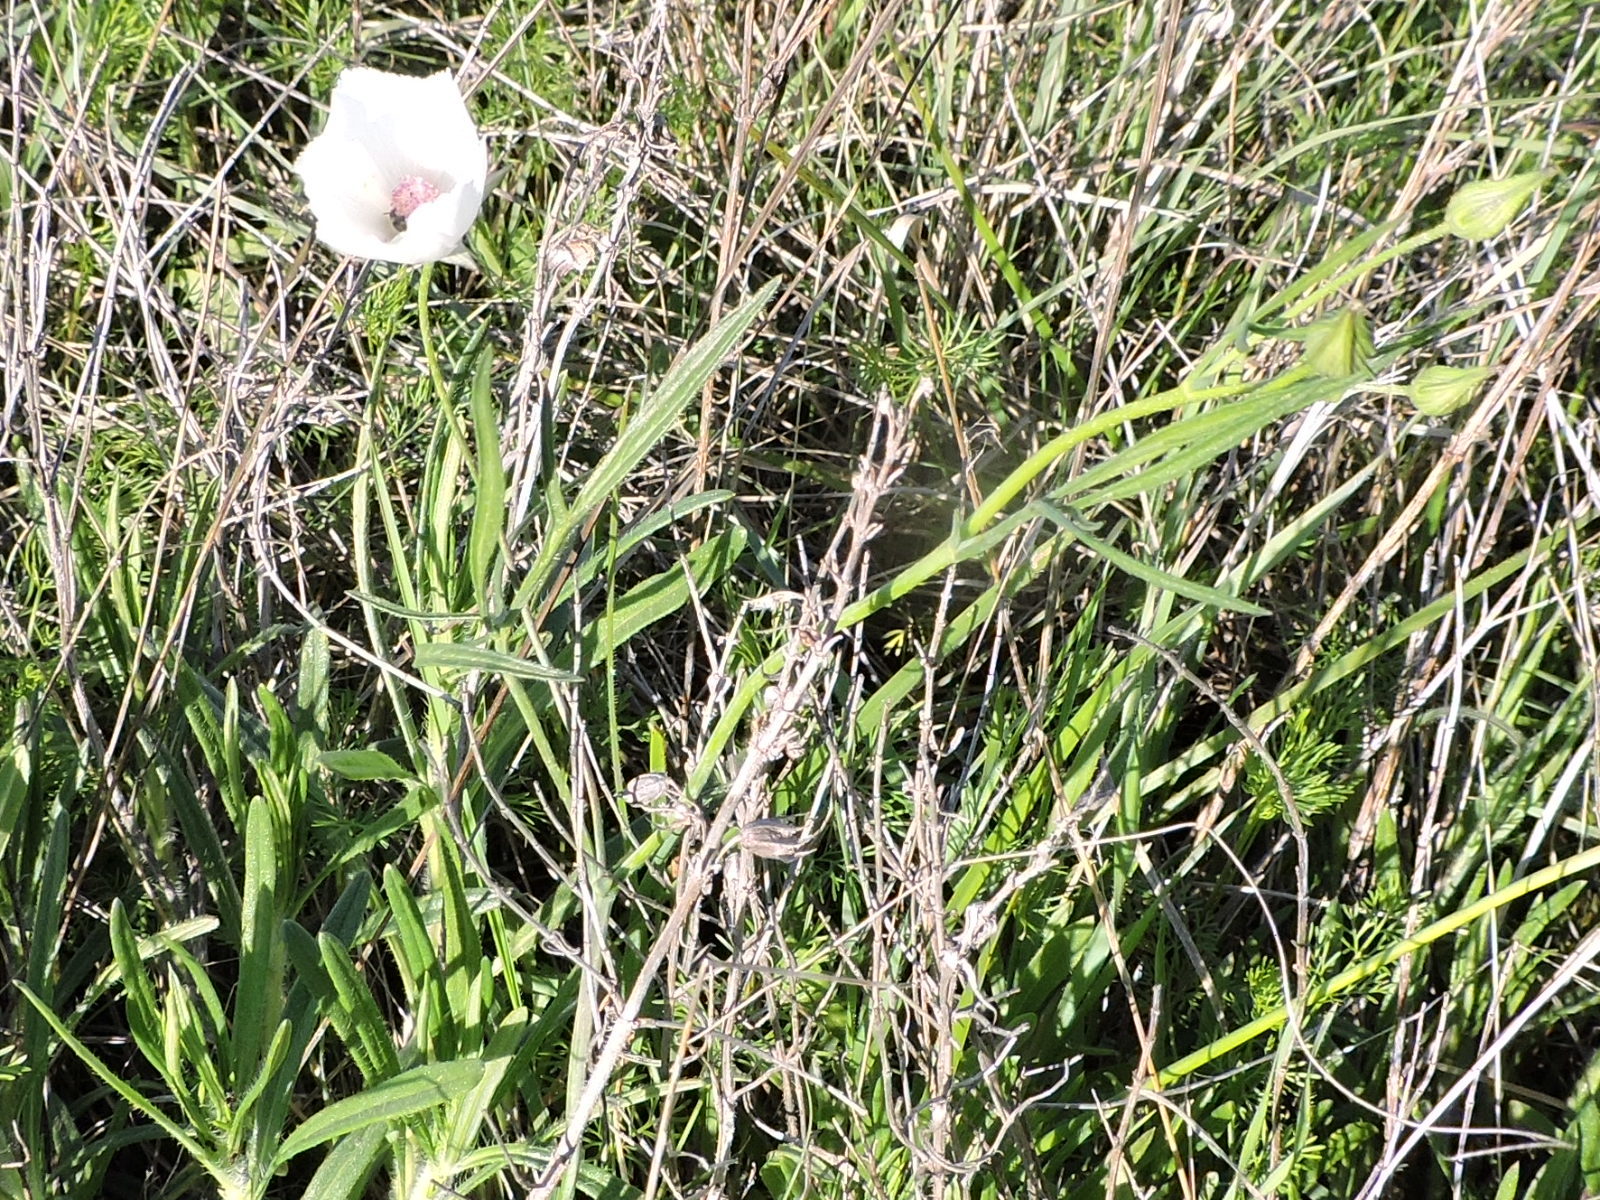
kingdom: Plantae
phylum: Tracheophyta
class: Magnoliopsida
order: Malvales
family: Malvaceae
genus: Callirhoe
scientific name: Callirhoe pedata
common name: Finger poppy-mallow
